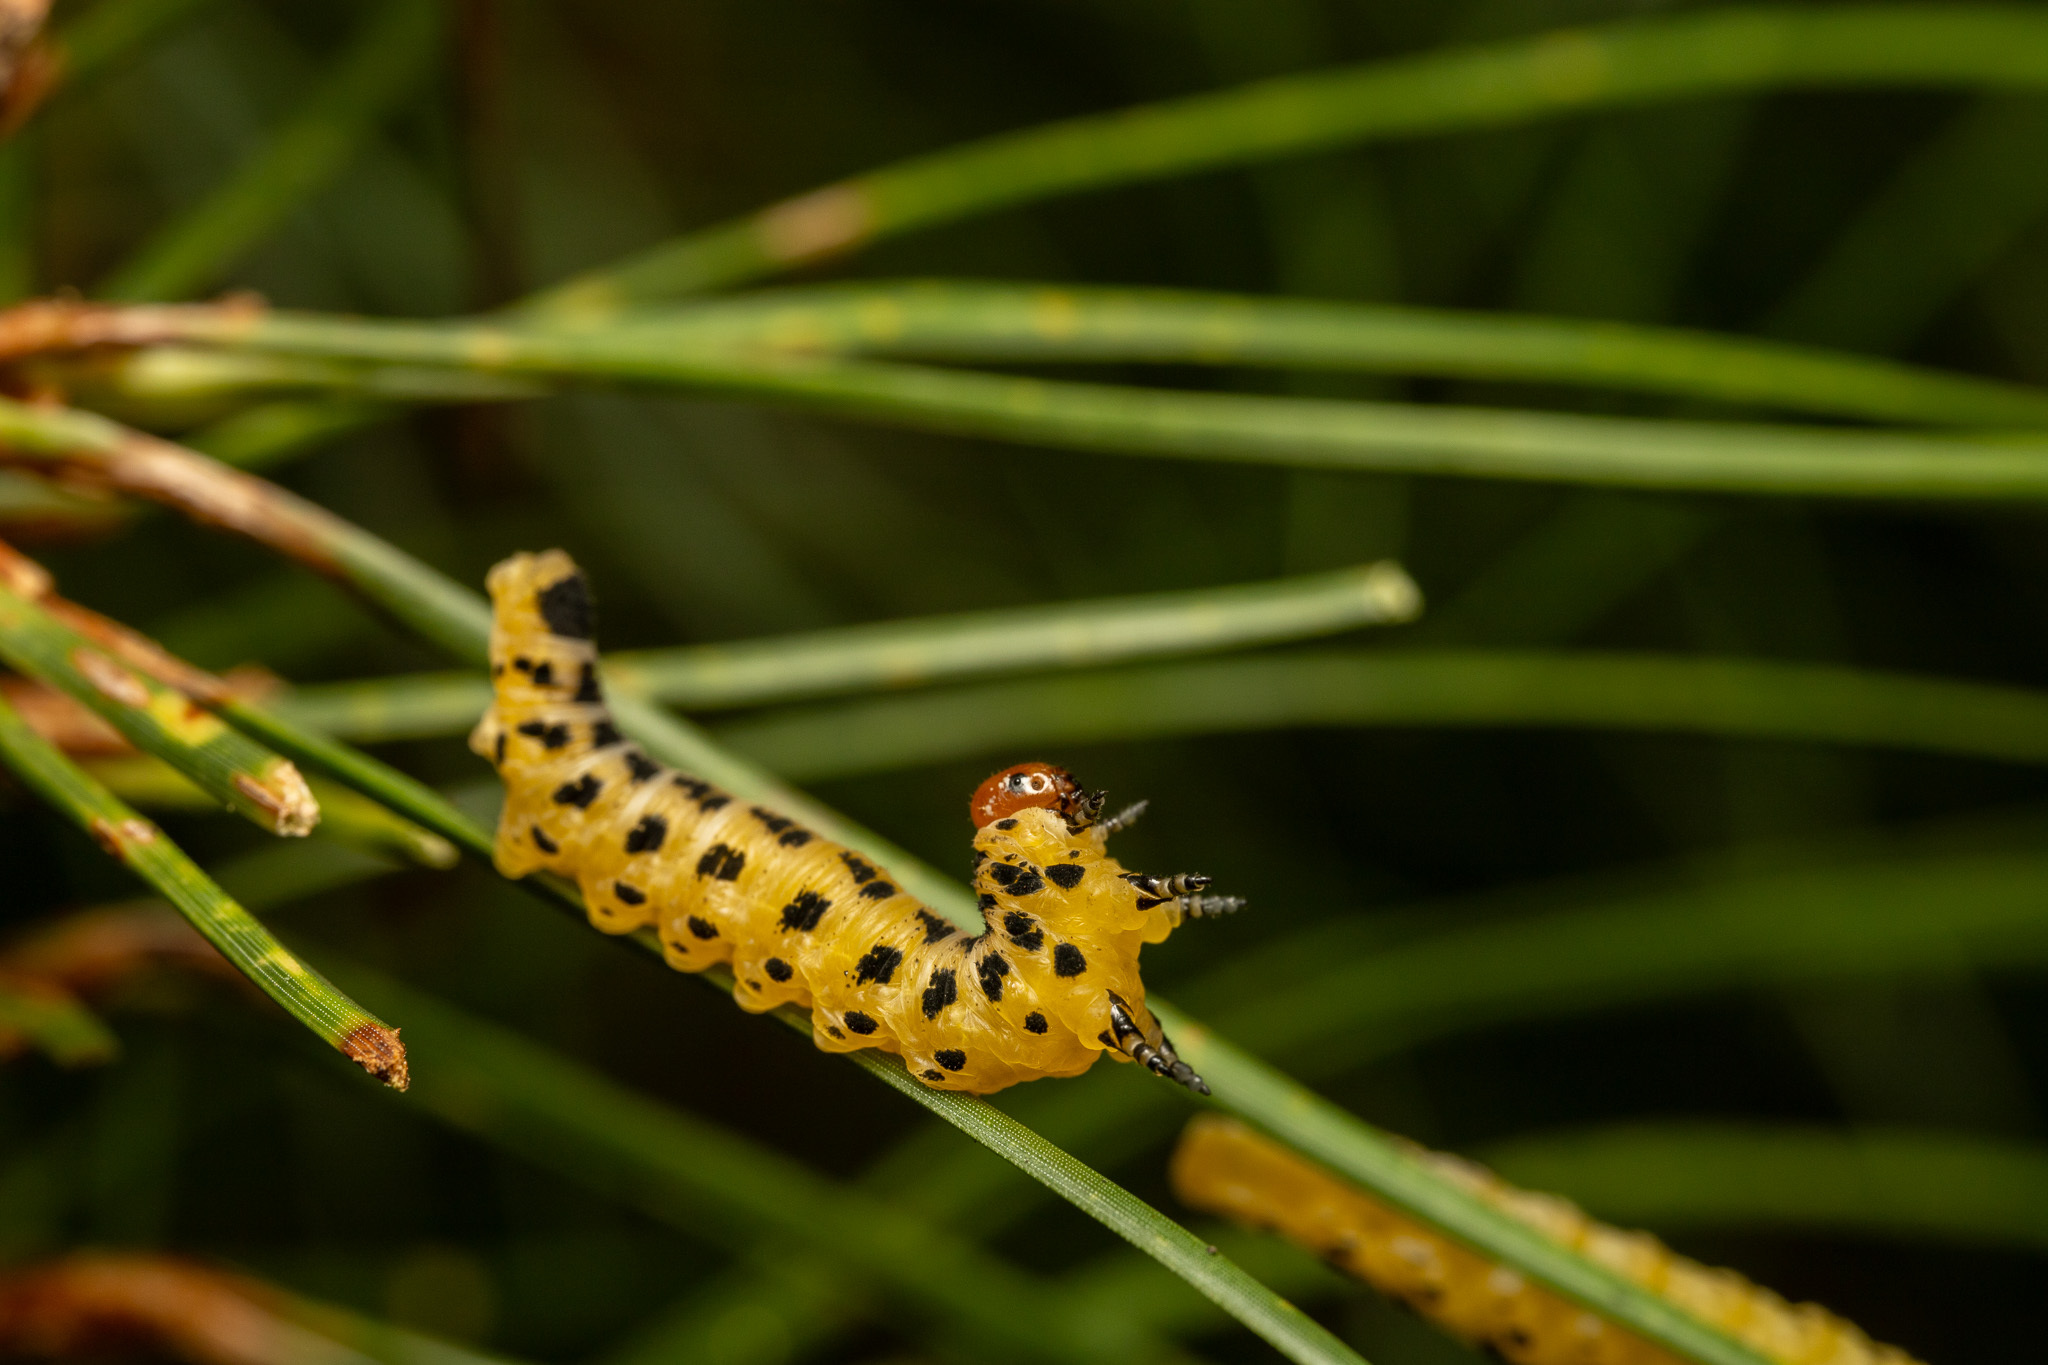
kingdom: Animalia
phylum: Arthropoda
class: Insecta
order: Hymenoptera
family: Diprionidae
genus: Neodiprion
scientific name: Neodiprion lecontei
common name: Redheaded pine sawfly
